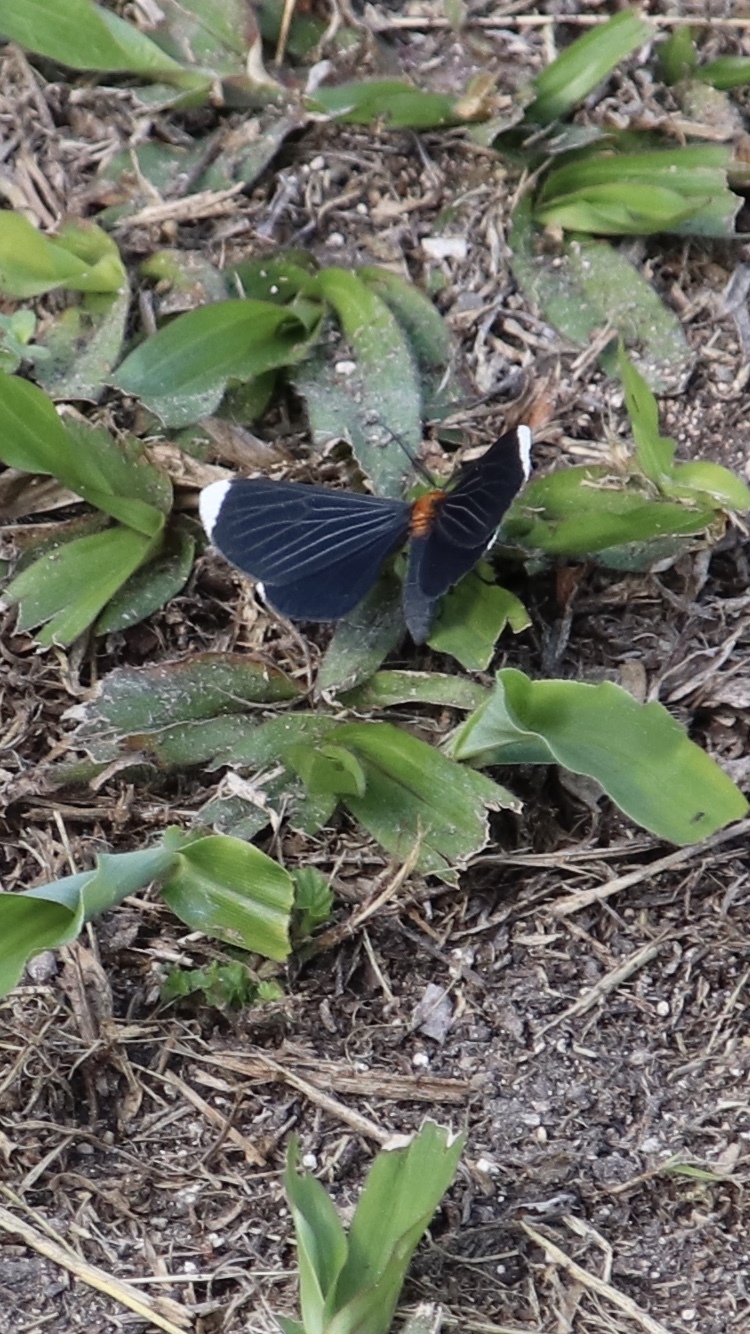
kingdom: Animalia
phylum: Arthropoda
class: Insecta
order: Lepidoptera
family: Geometridae
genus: Melanchroia
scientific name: Melanchroia chephise
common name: White-tipped black
